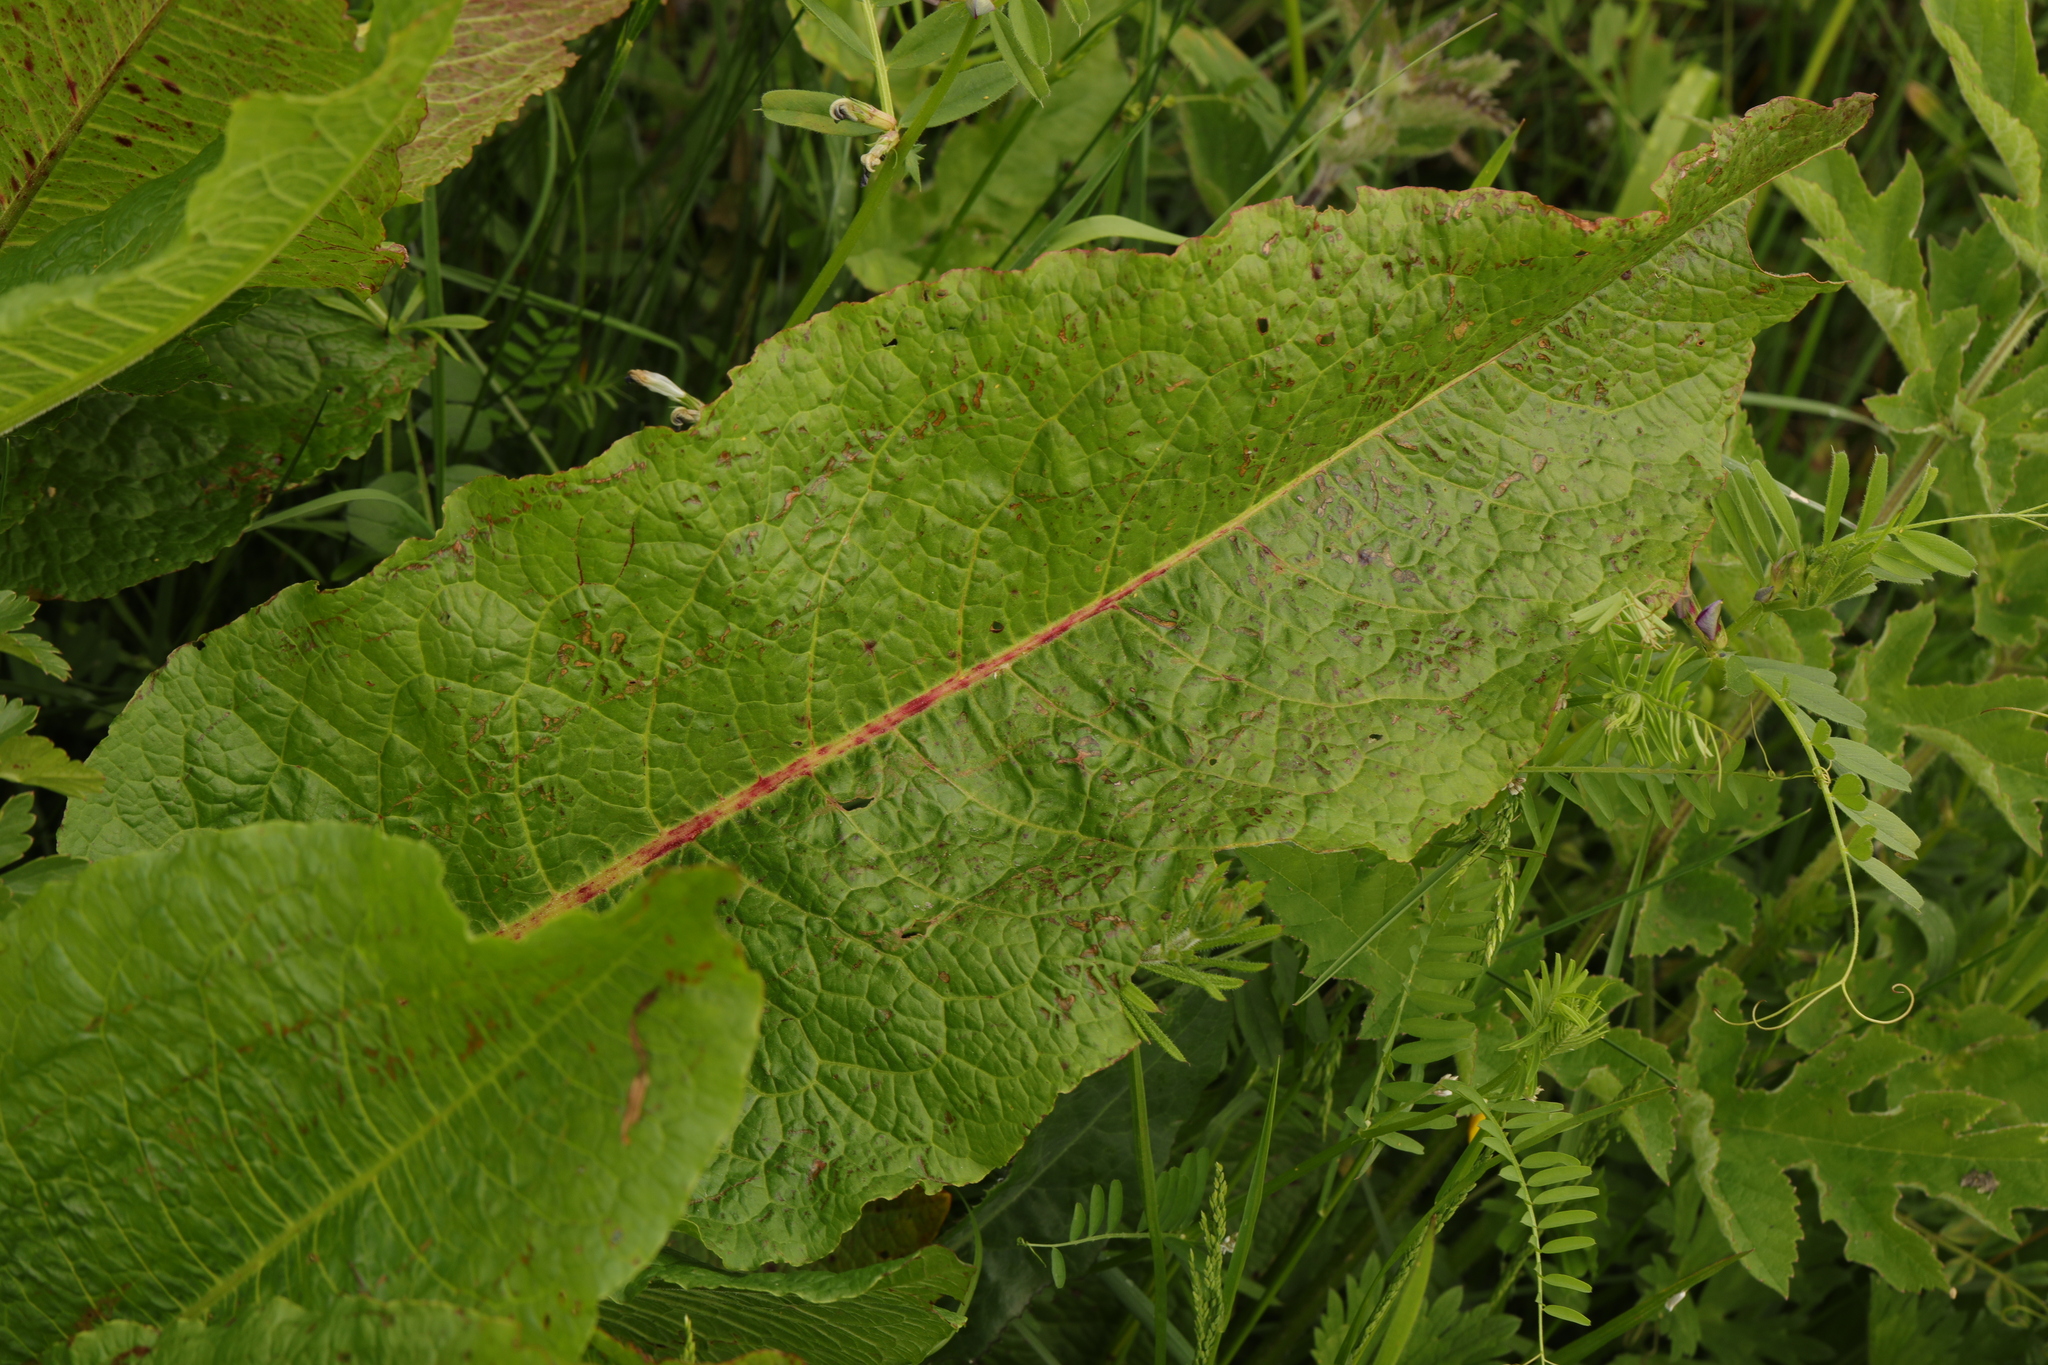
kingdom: Plantae
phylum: Tracheophyta
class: Magnoliopsida
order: Caryophyllales
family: Polygonaceae
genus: Rumex
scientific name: Rumex obtusifolius
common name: Bitter dock
